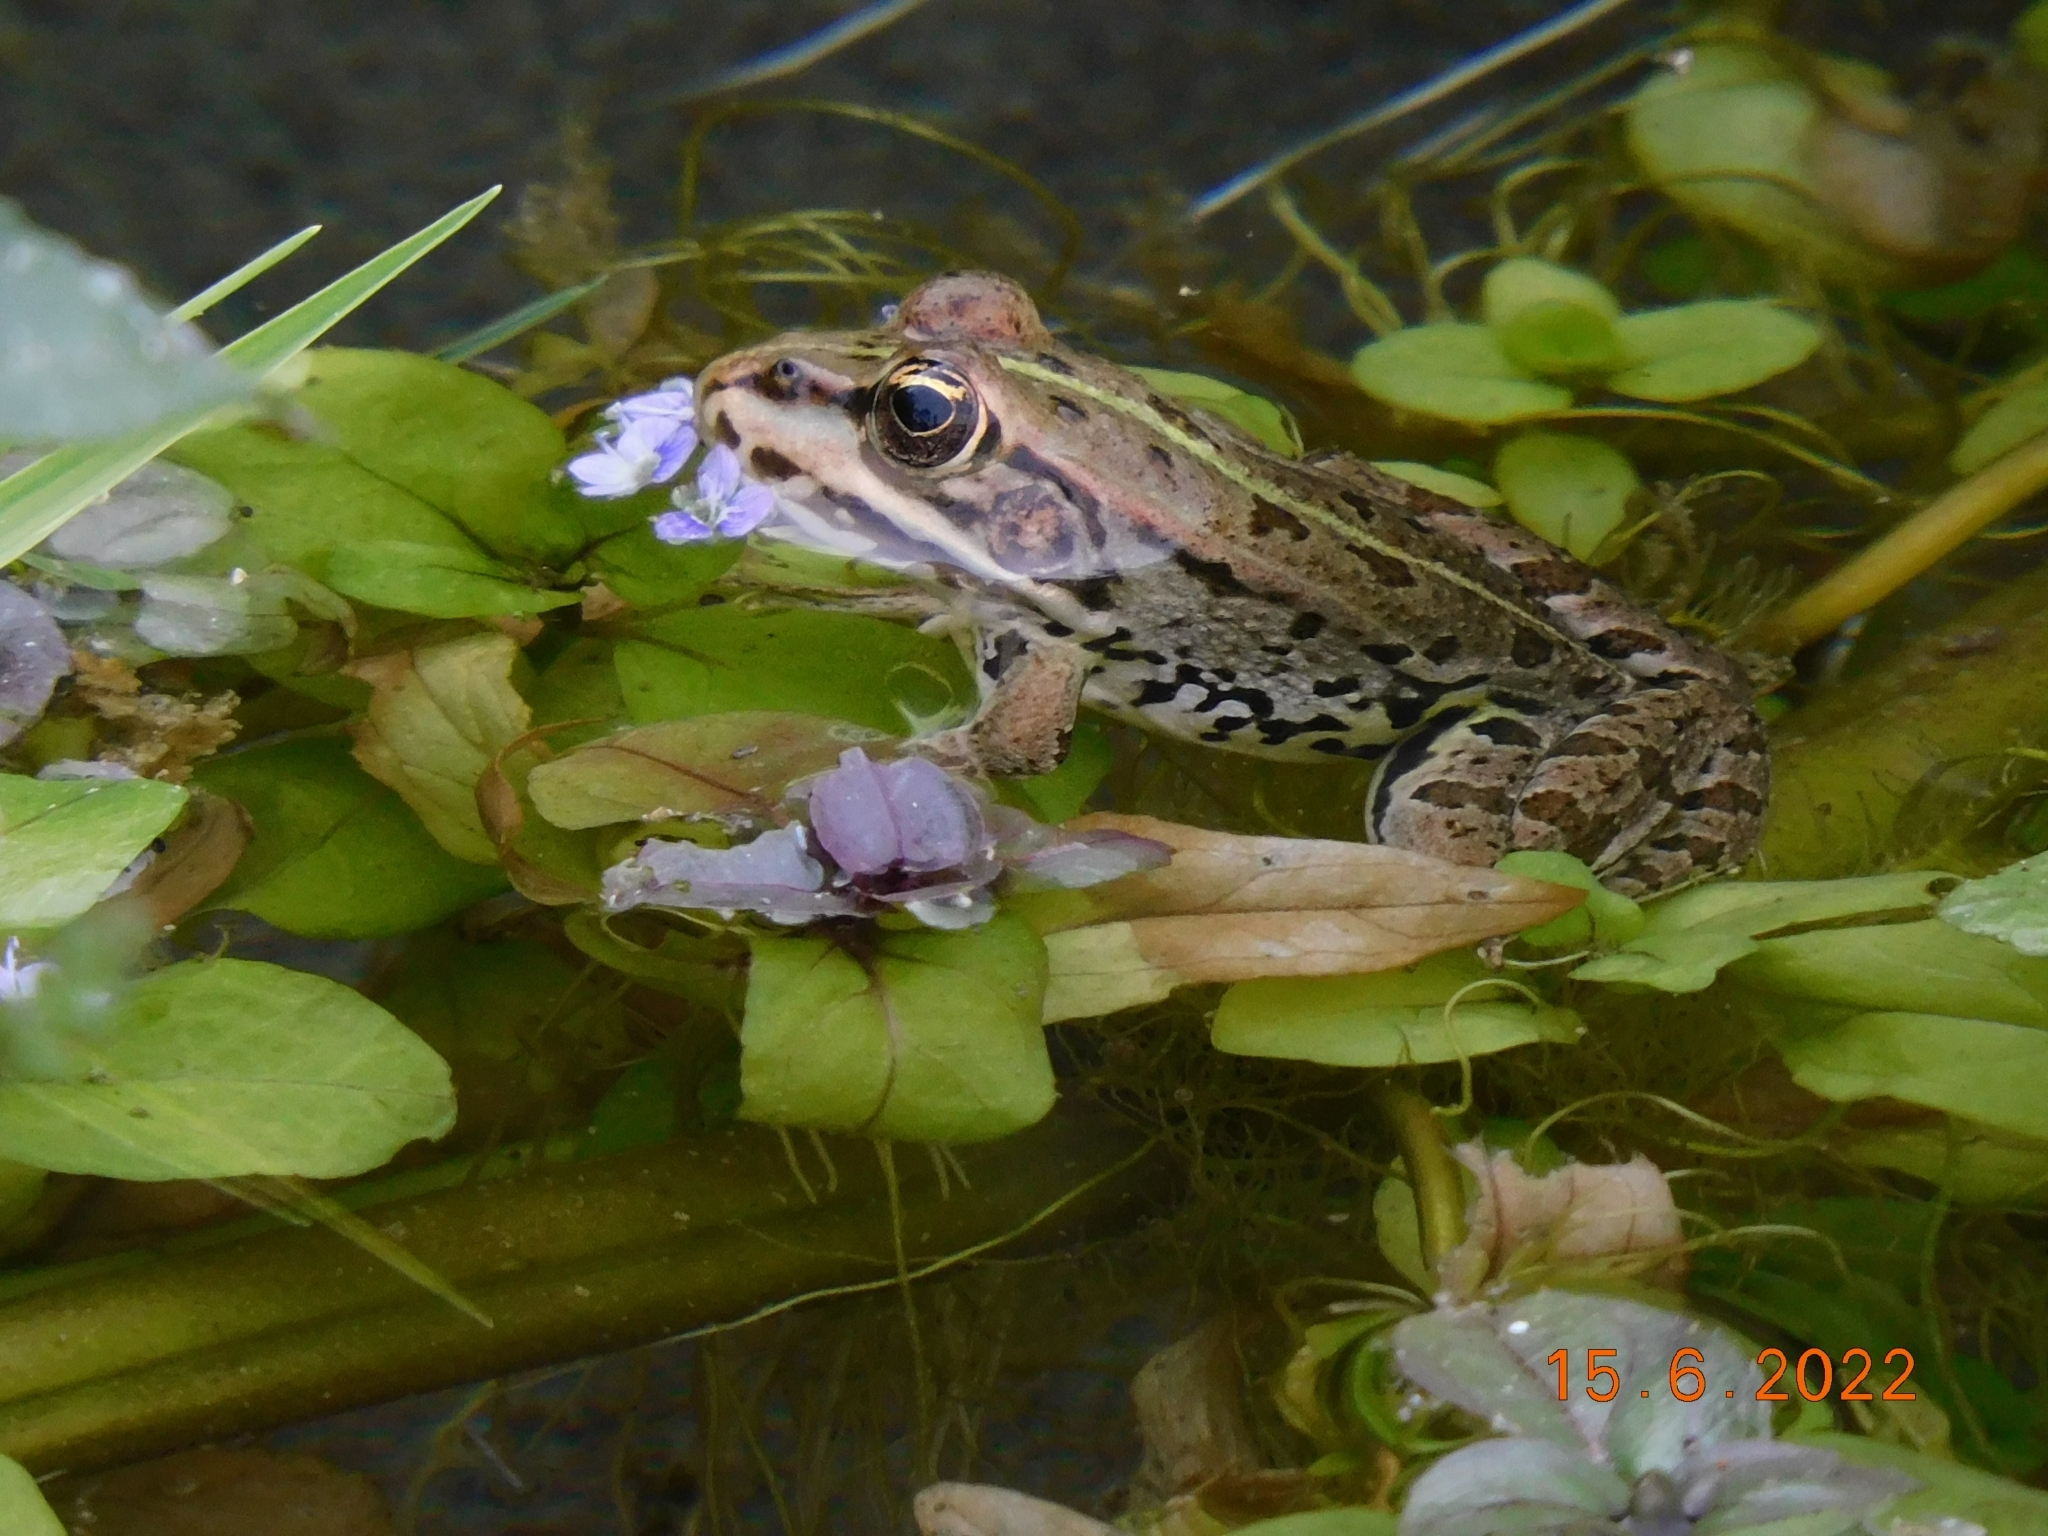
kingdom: Animalia
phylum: Chordata
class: Amphibia
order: Anura
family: Ranidae
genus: Pelophylax
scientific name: Pelophylax
